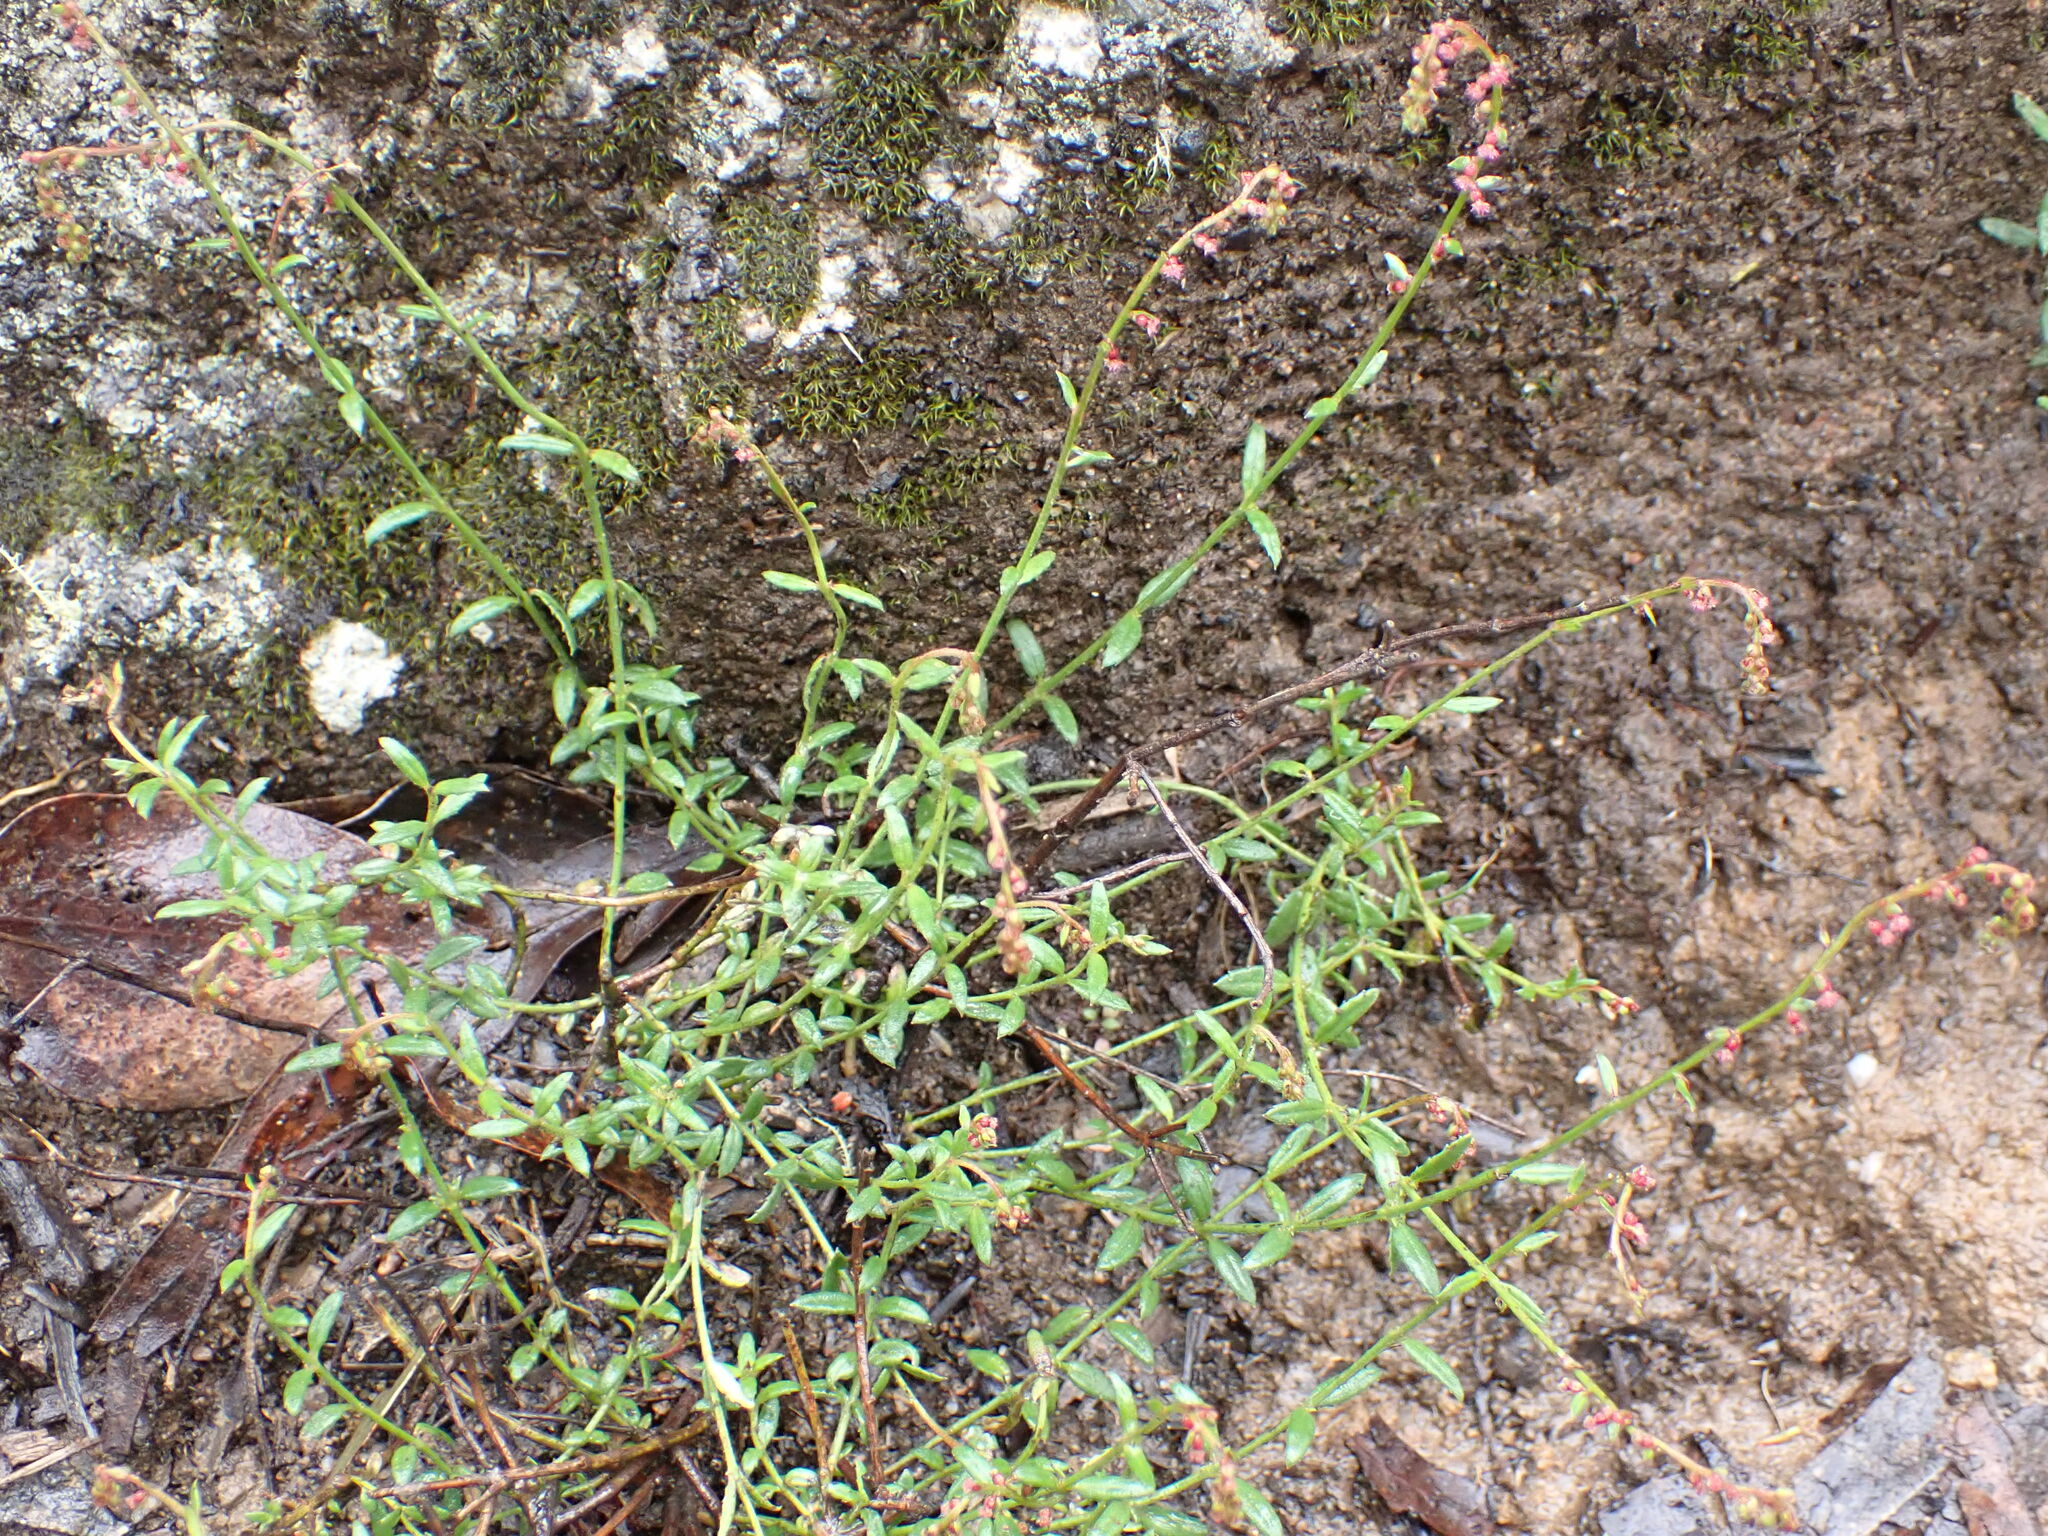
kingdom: Plantae
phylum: Tracheophyta
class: Magnoliopsida
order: Saxifragales
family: Haloragaceae
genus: Gonocarpus
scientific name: Gonocarpus tetragynus
